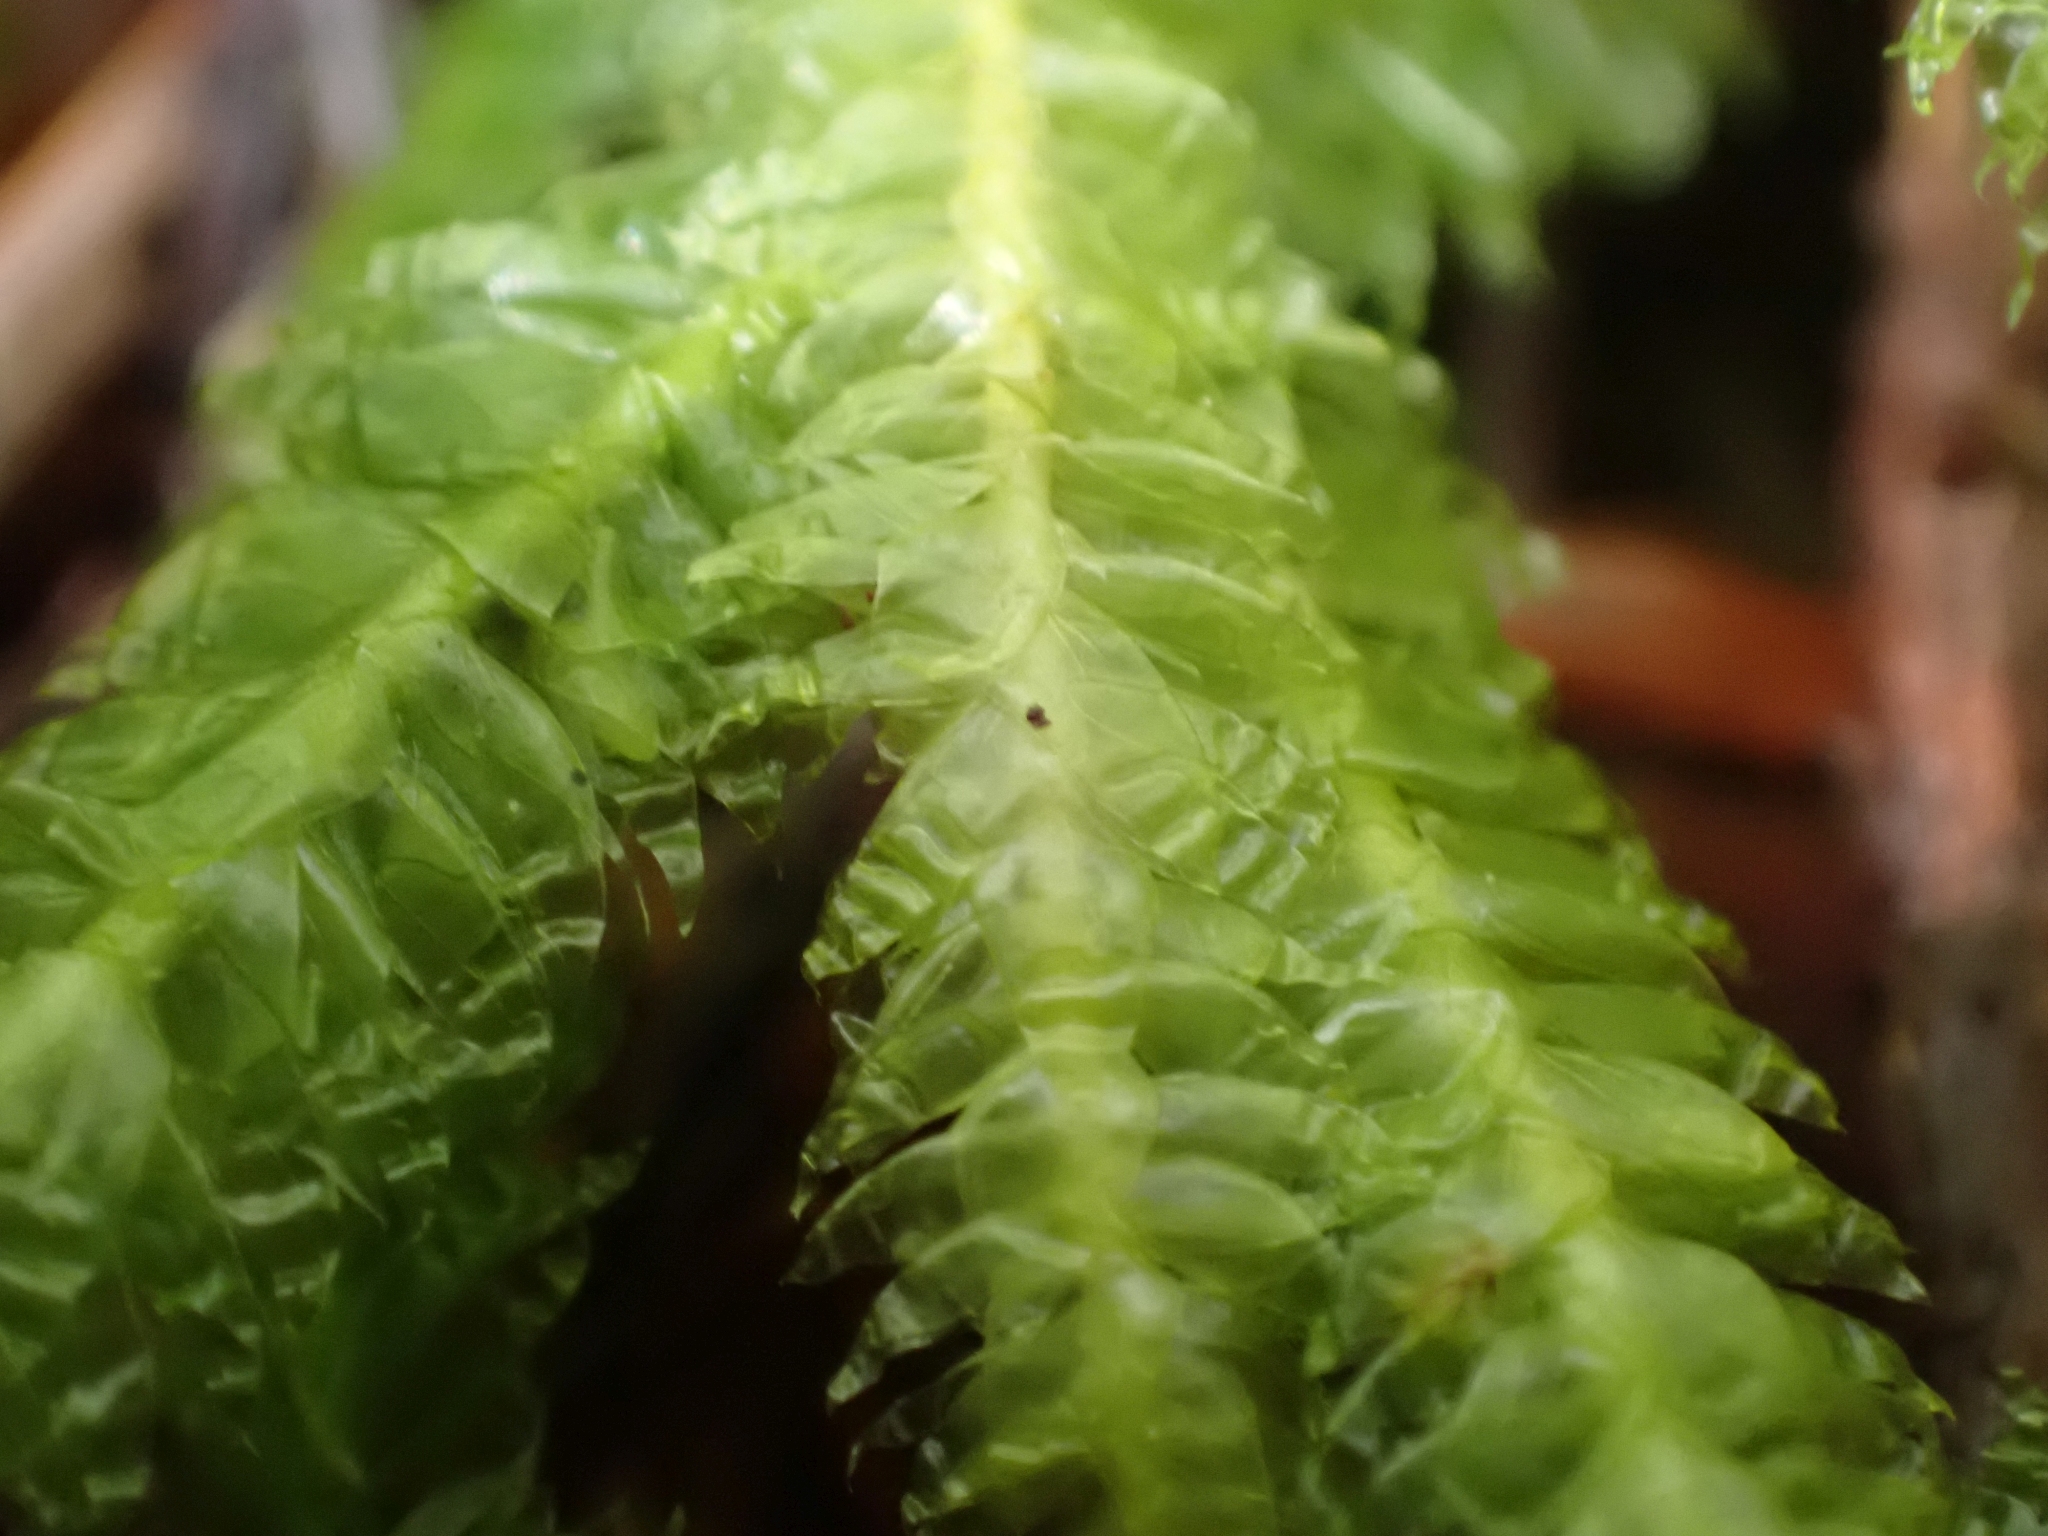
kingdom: Plantae
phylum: Bryophyta
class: Bryopsida
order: Hypnales
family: Plagiotheciaceae
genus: Plagiothecium
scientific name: Plagiothecium undulatum
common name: Waved silk-moss
